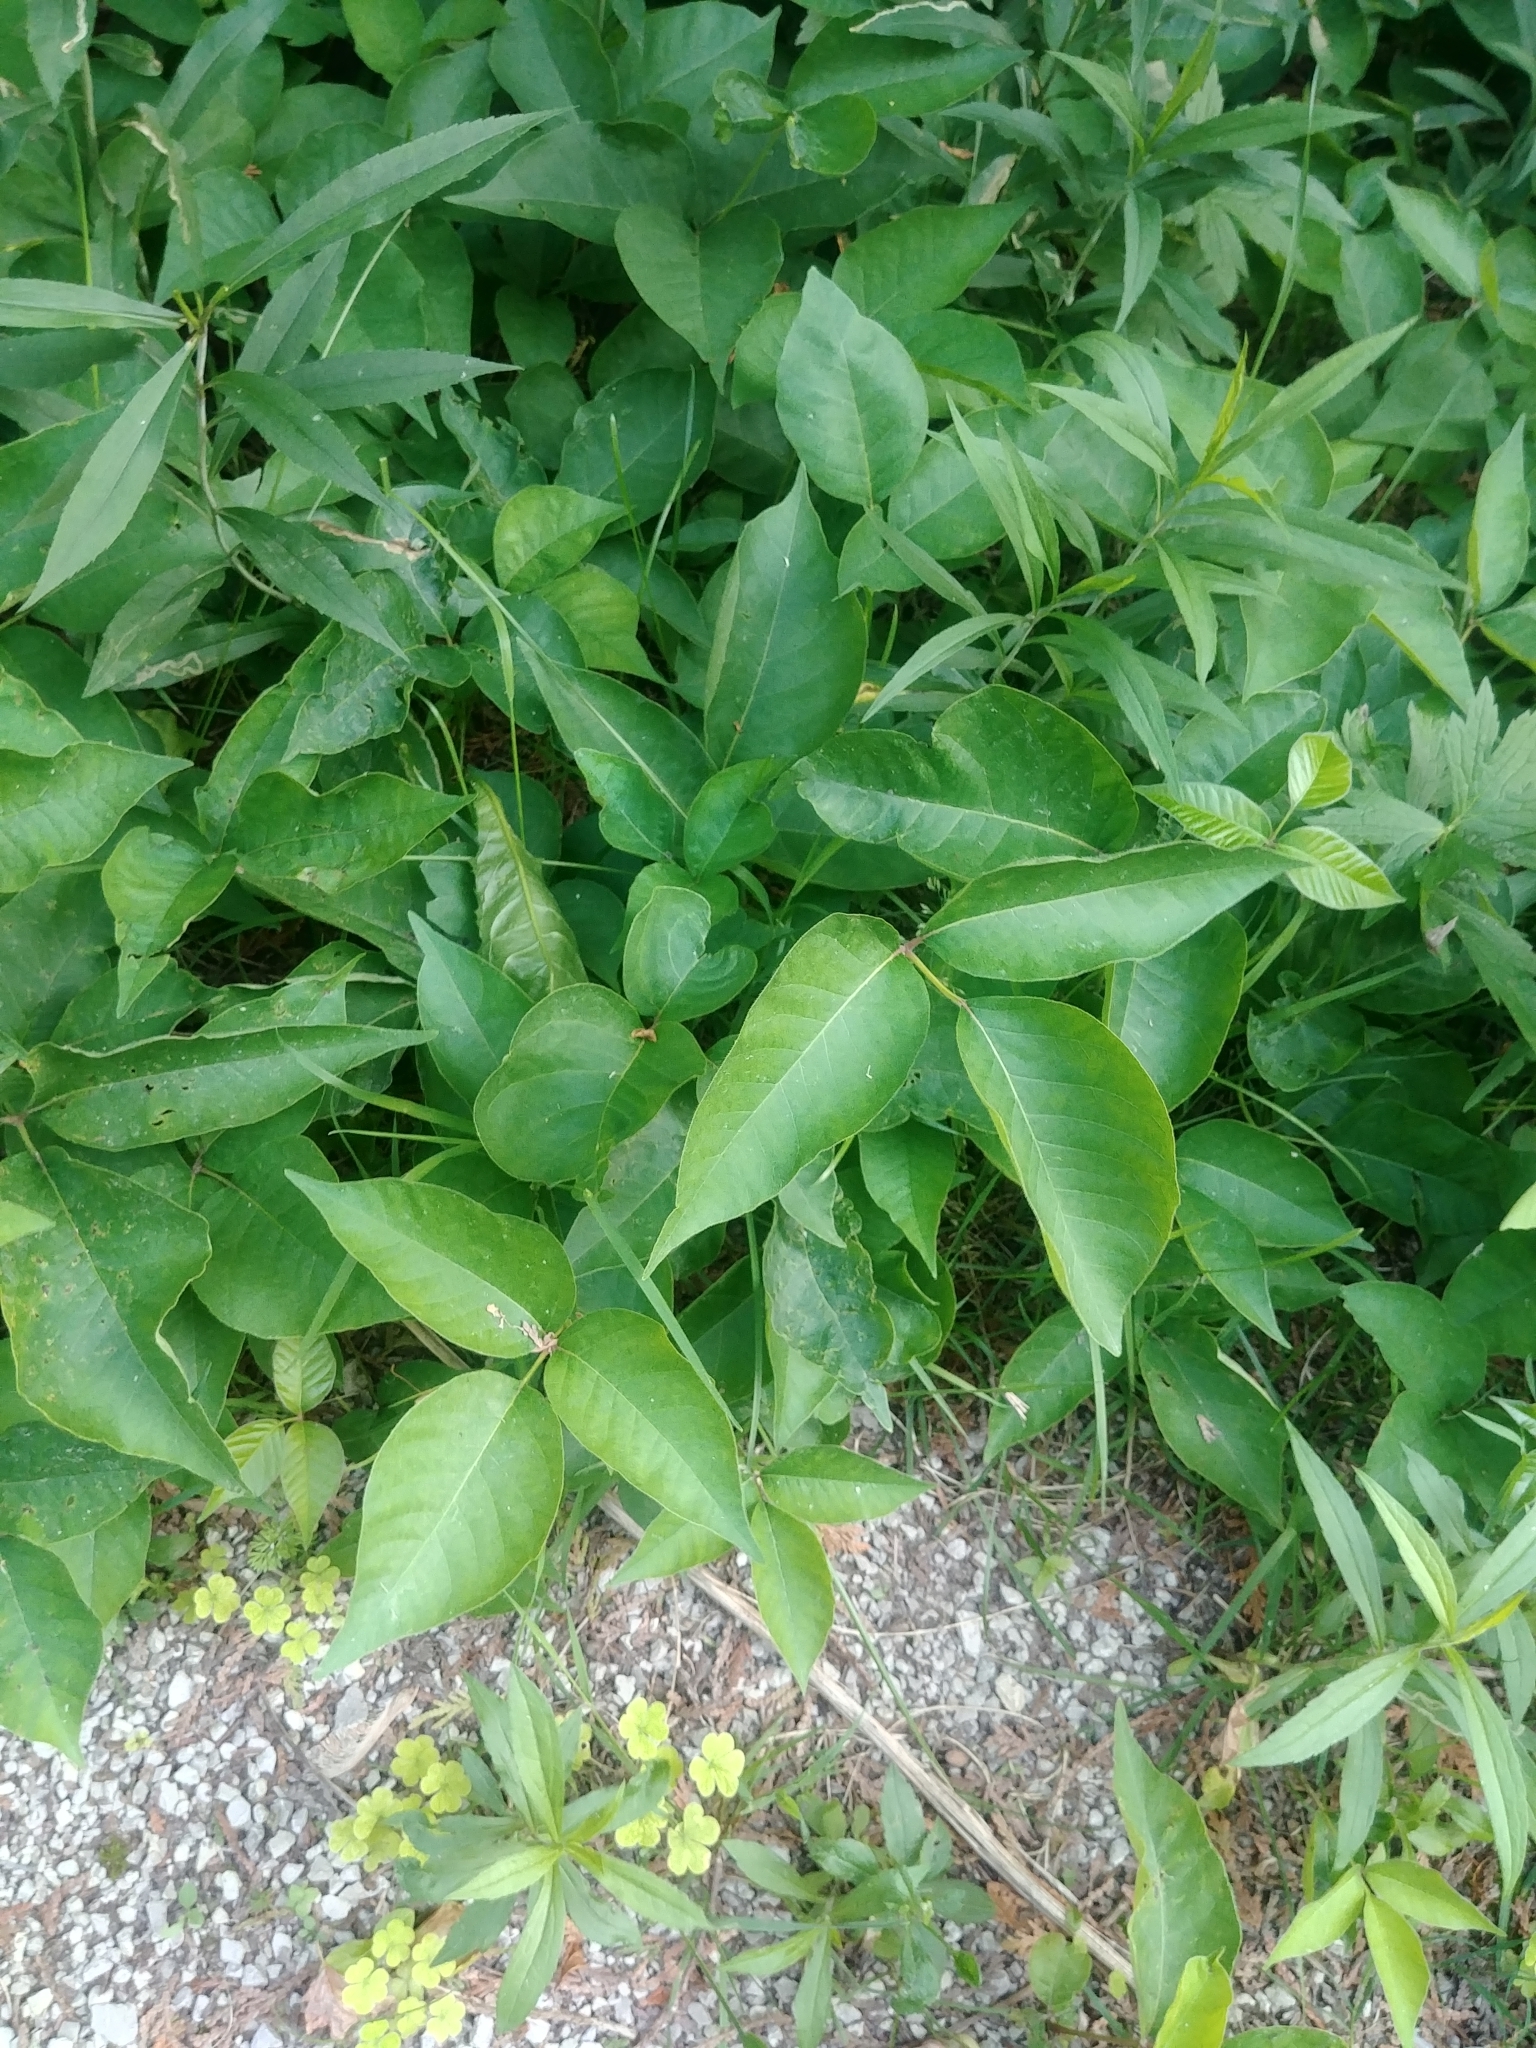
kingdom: Plantae
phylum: Tracheophyta
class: Magnoliopsida
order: Sapindales
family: Anacardiaceae
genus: Toxicodendron
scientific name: Toxicodendron radicans
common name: Poison ivy
